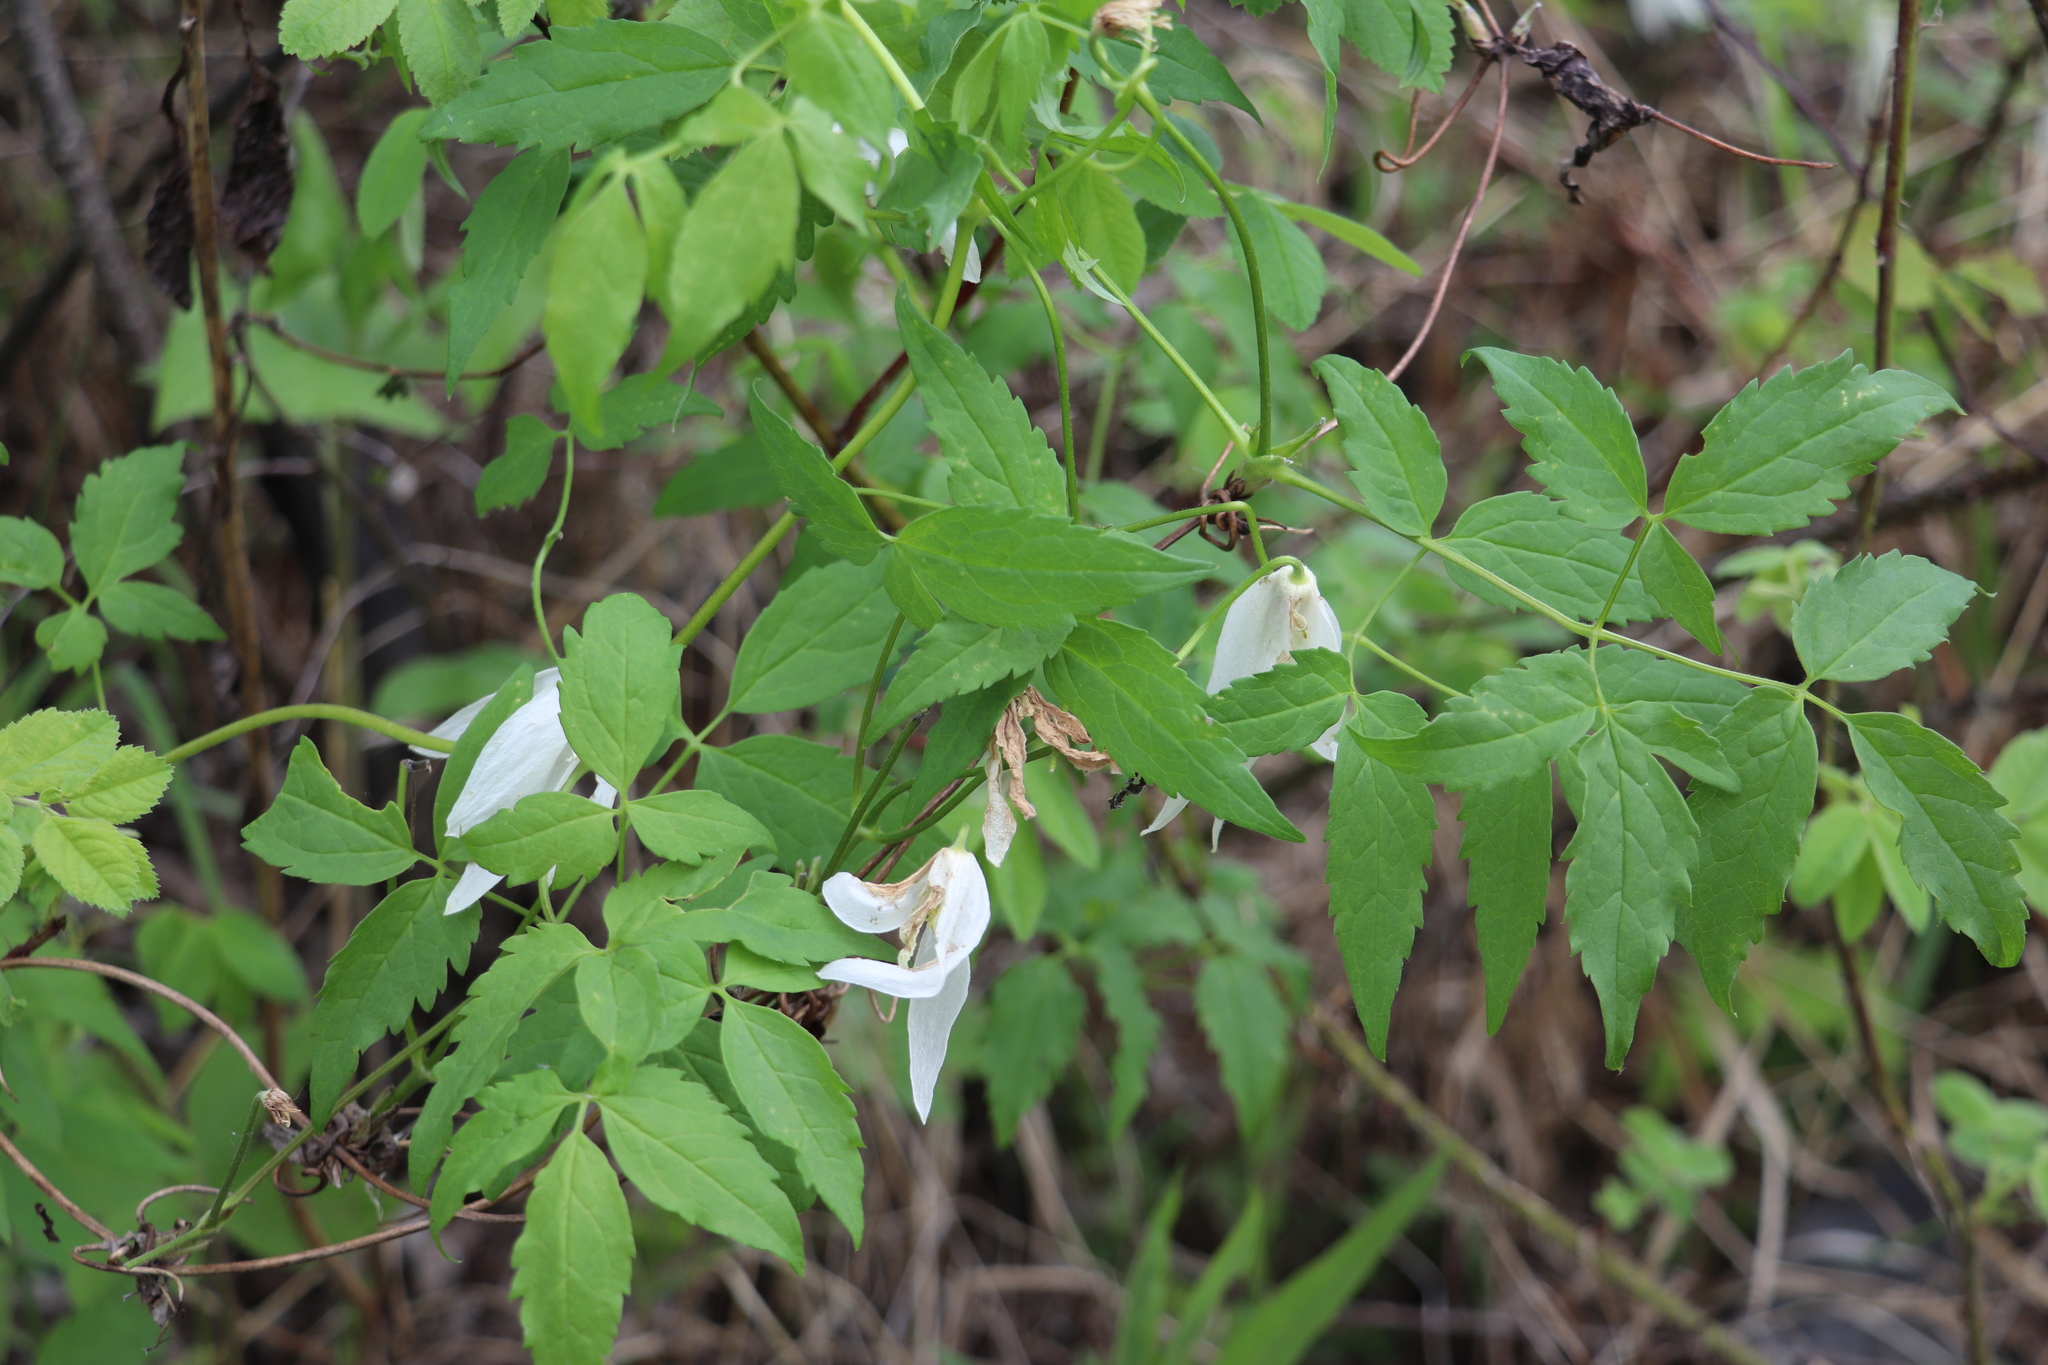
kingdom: Plantae
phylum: Tracheophyta
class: Magnoliopsida
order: Ranunculales
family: Ranunculaceae
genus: Clematis
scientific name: Clematis sibirica
